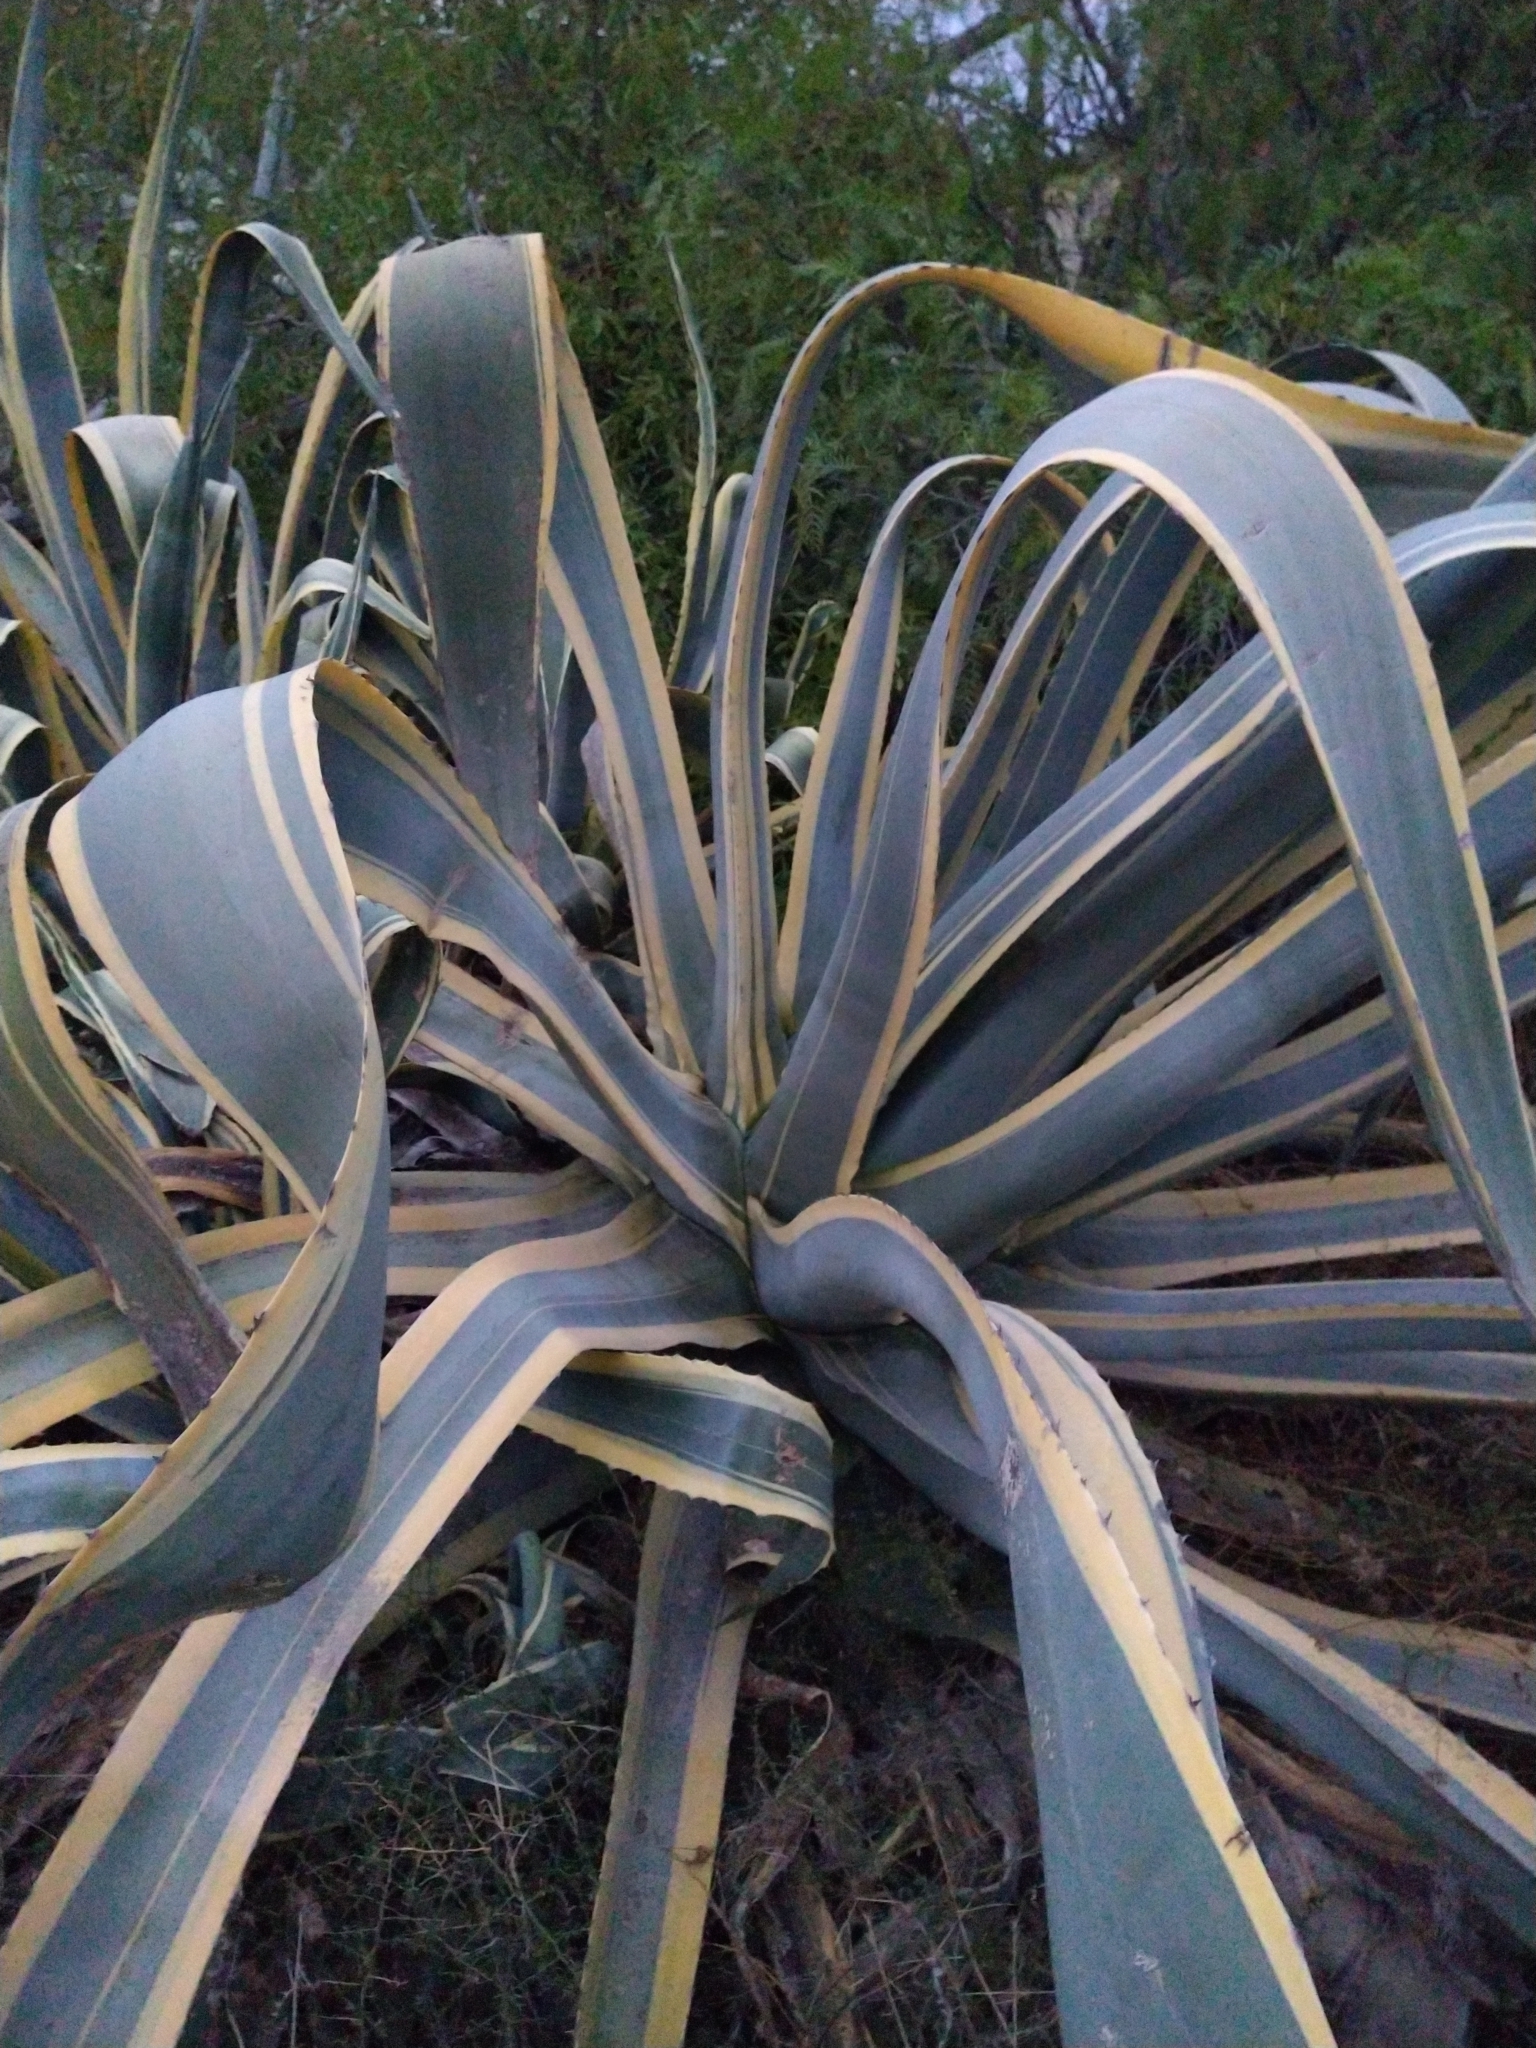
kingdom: Plantae
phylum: Tracheophyta
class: Liliopsida
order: Asparagales
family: Asparagaceae
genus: Agave
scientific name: Agave americana
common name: Centuryplant
